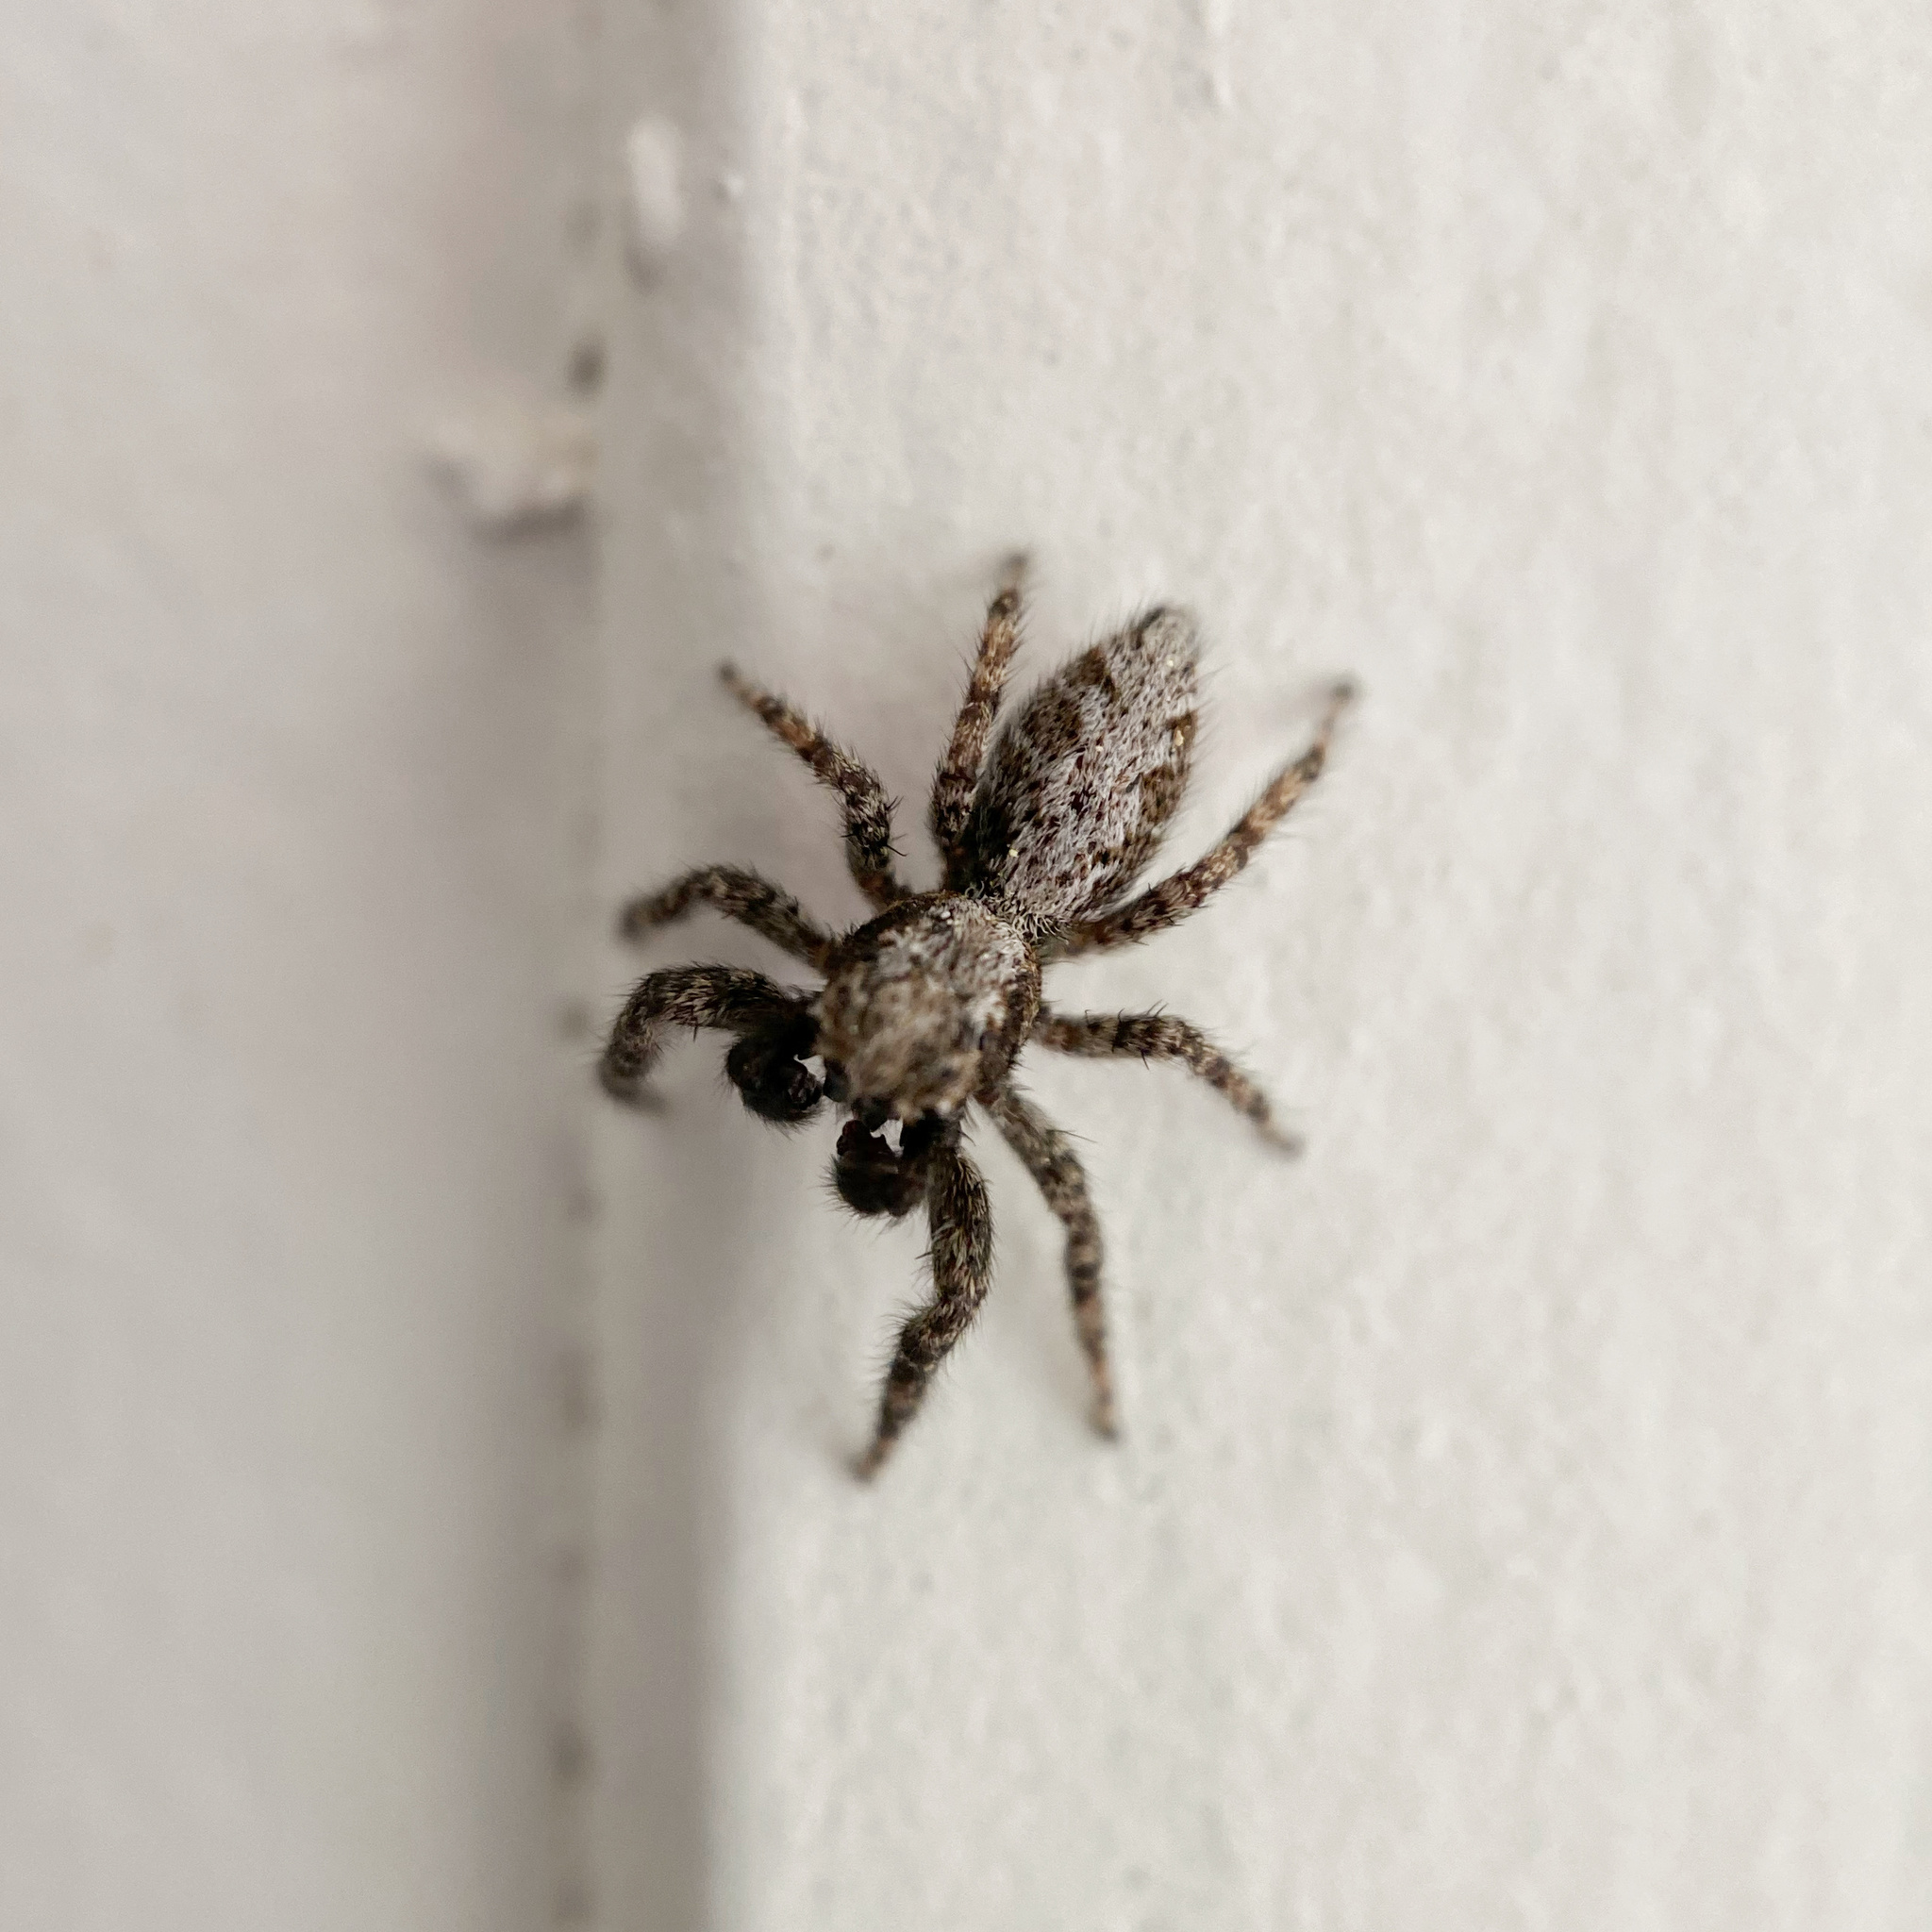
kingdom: Animalia
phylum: Arthropoda
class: Arachnida
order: Araneae
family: Salticidae
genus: Platycryptus
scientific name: Platycryptus californicus
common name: Jumping spiders
